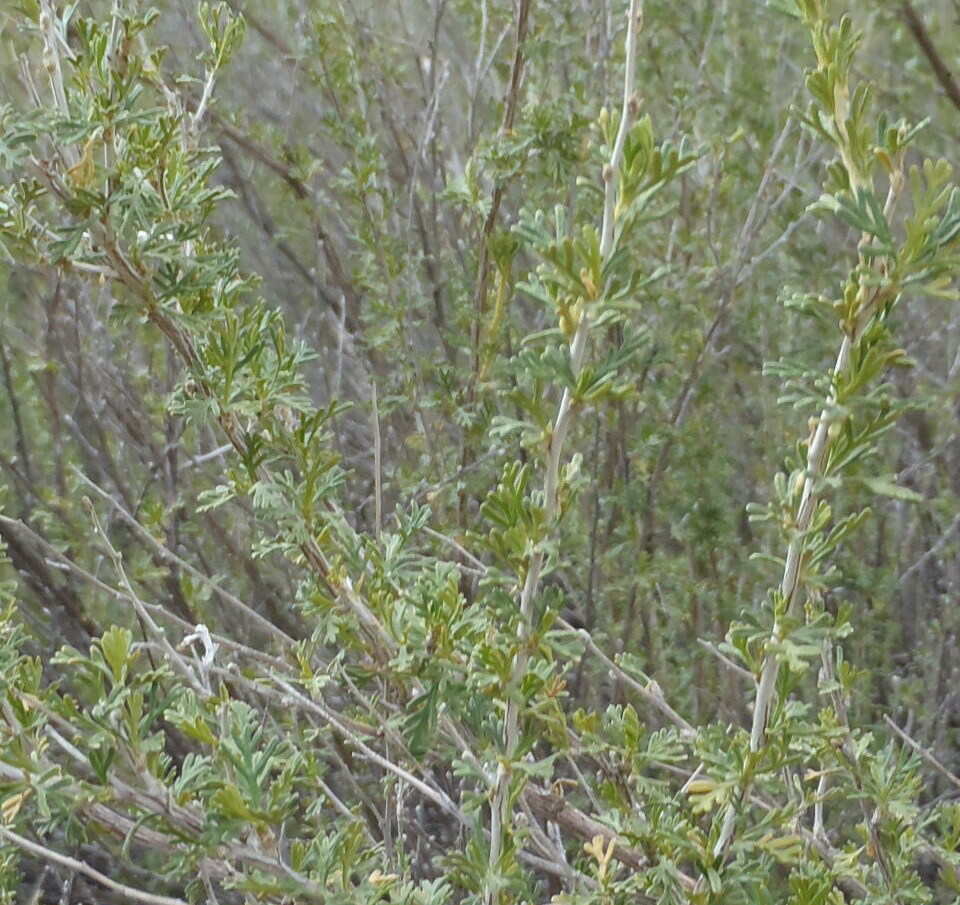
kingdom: Plantae
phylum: Tracheophyta
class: Magnoliopsida
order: Rosales
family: Rosaceae
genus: Fallugia
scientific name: Fallugia paradoxa
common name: Apache-plume
